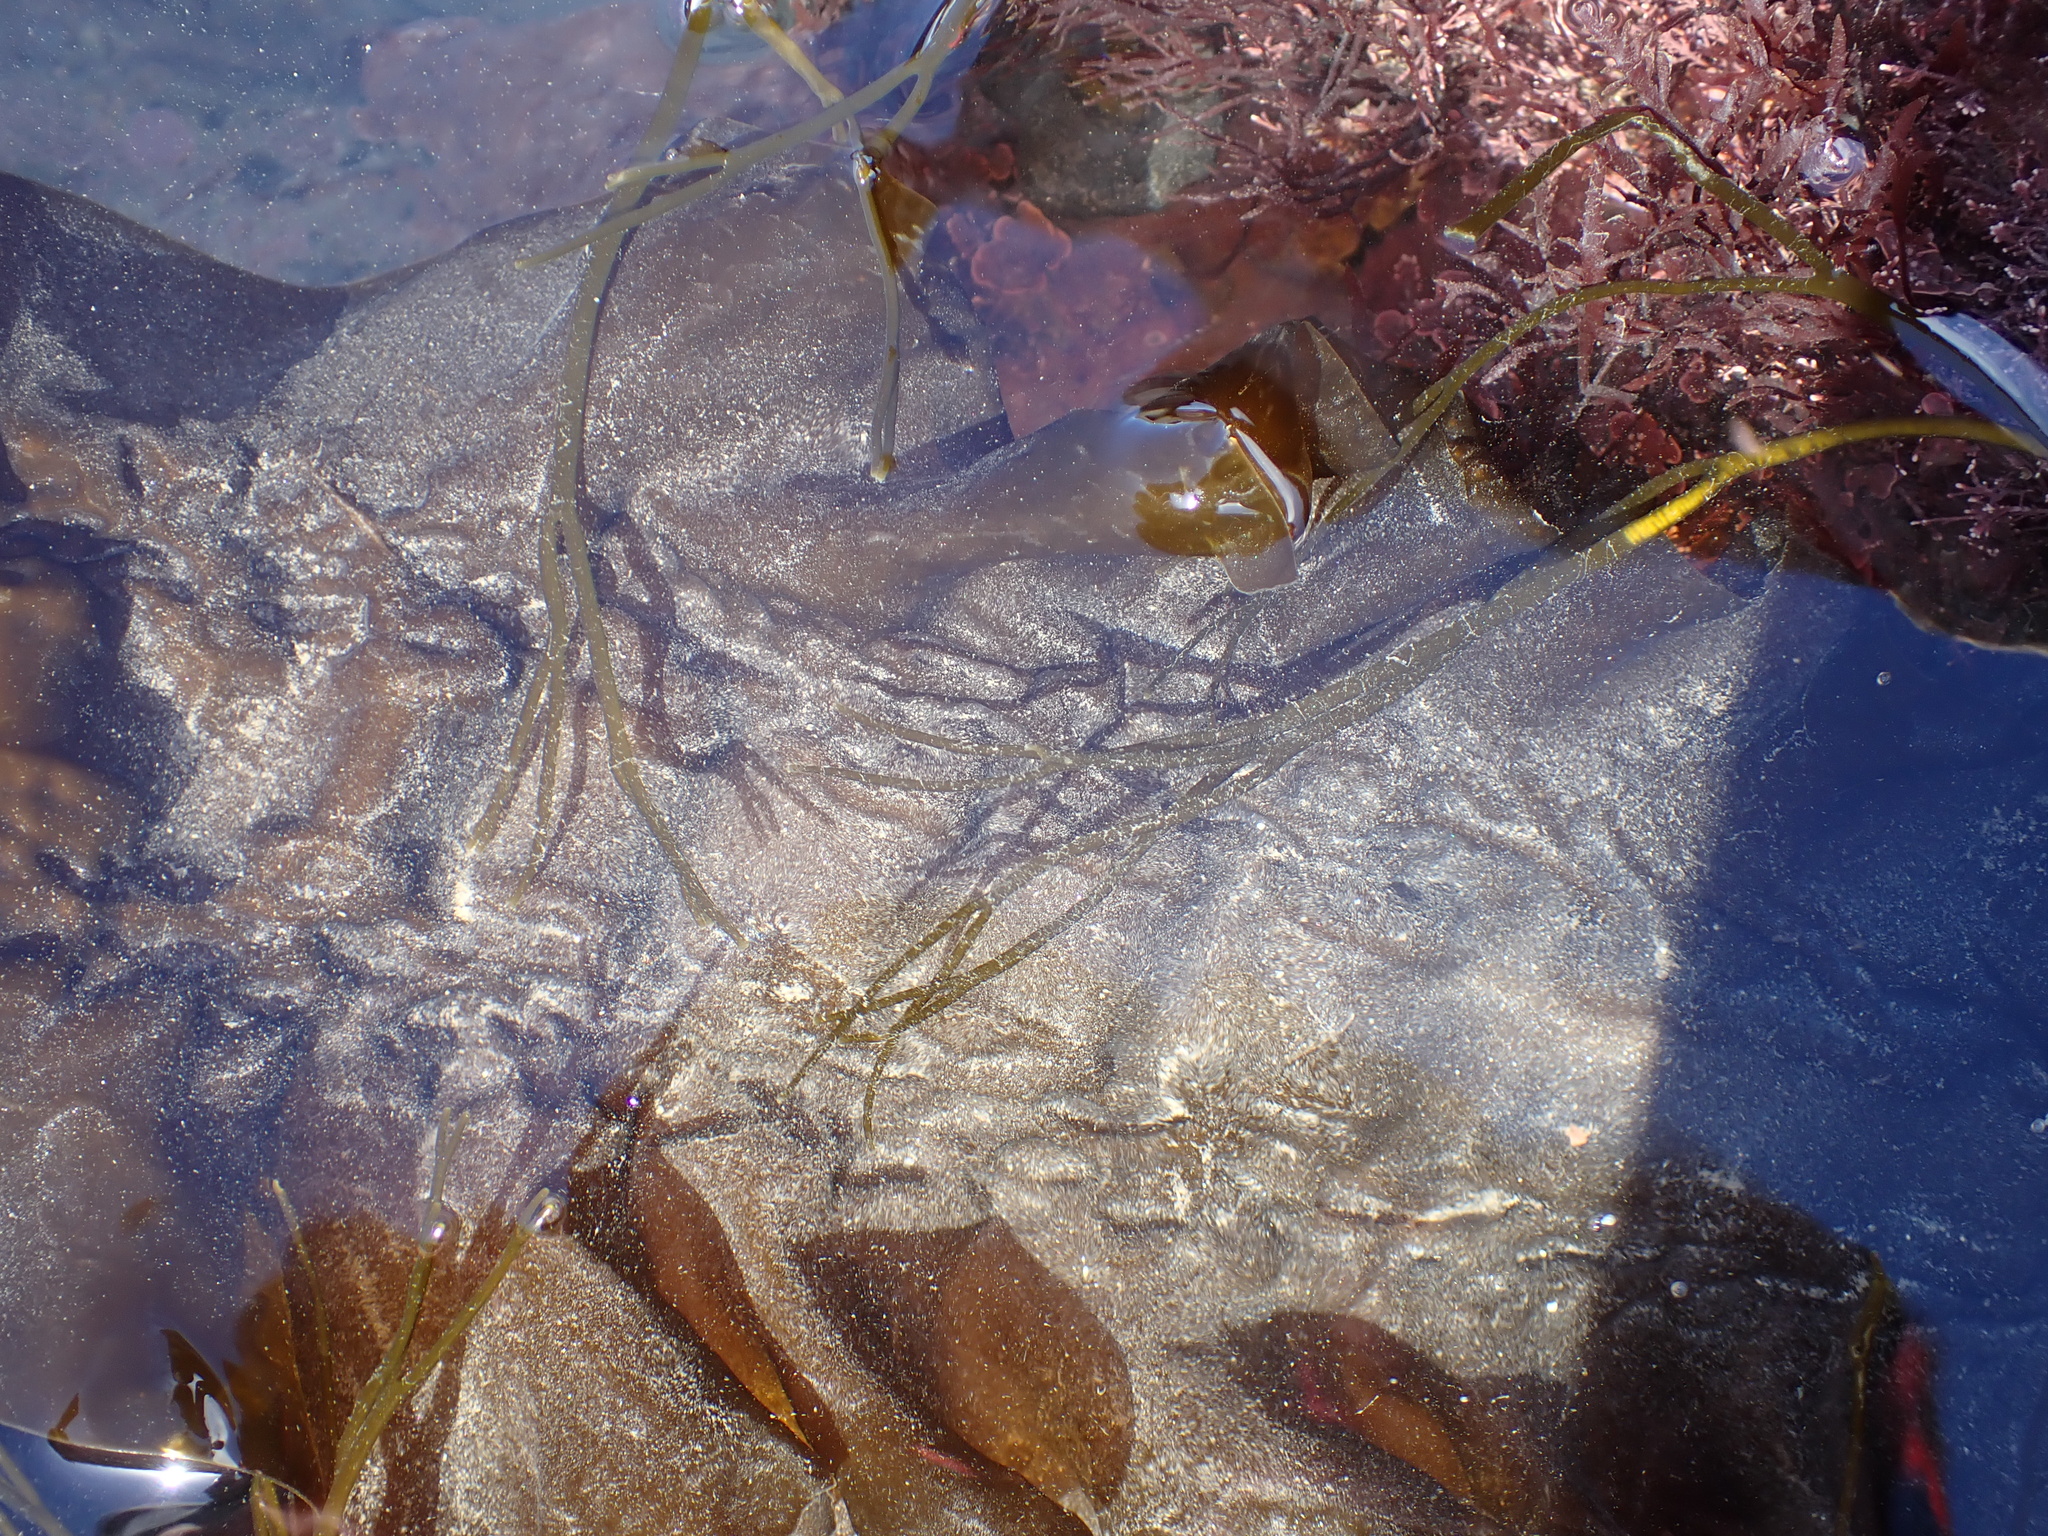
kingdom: Chromista
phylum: Ochrophyta
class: Phaeophyceae
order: Laminariales
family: Laminariaceae
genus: Saccharina
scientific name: Saccharina latissima
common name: Poor man's weather glass
